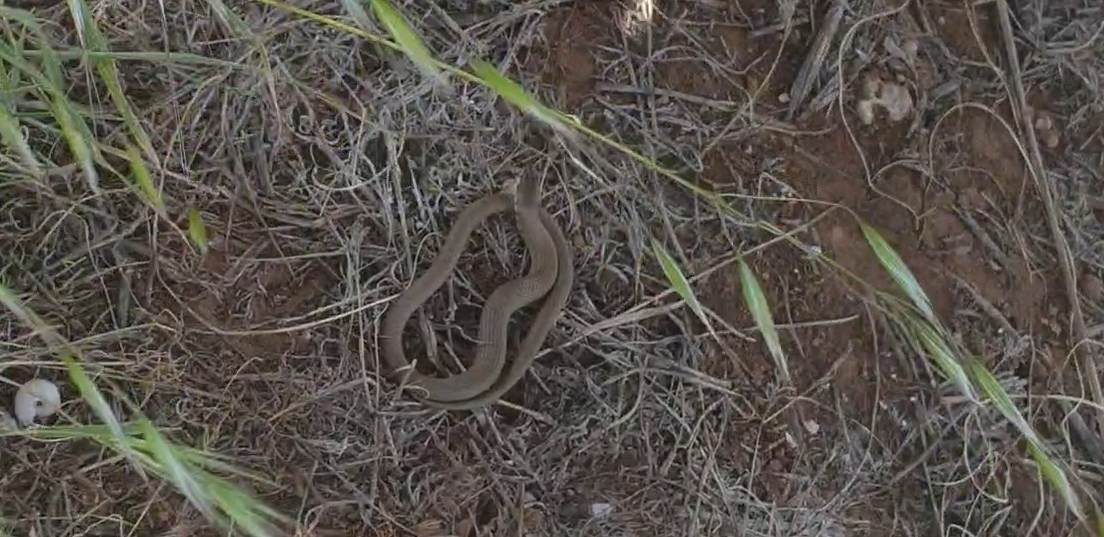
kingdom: Animalia
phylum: Chordata
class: Squamata
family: Pygopodidae
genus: Delma
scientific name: Delma molleri
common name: Gulfs delma
